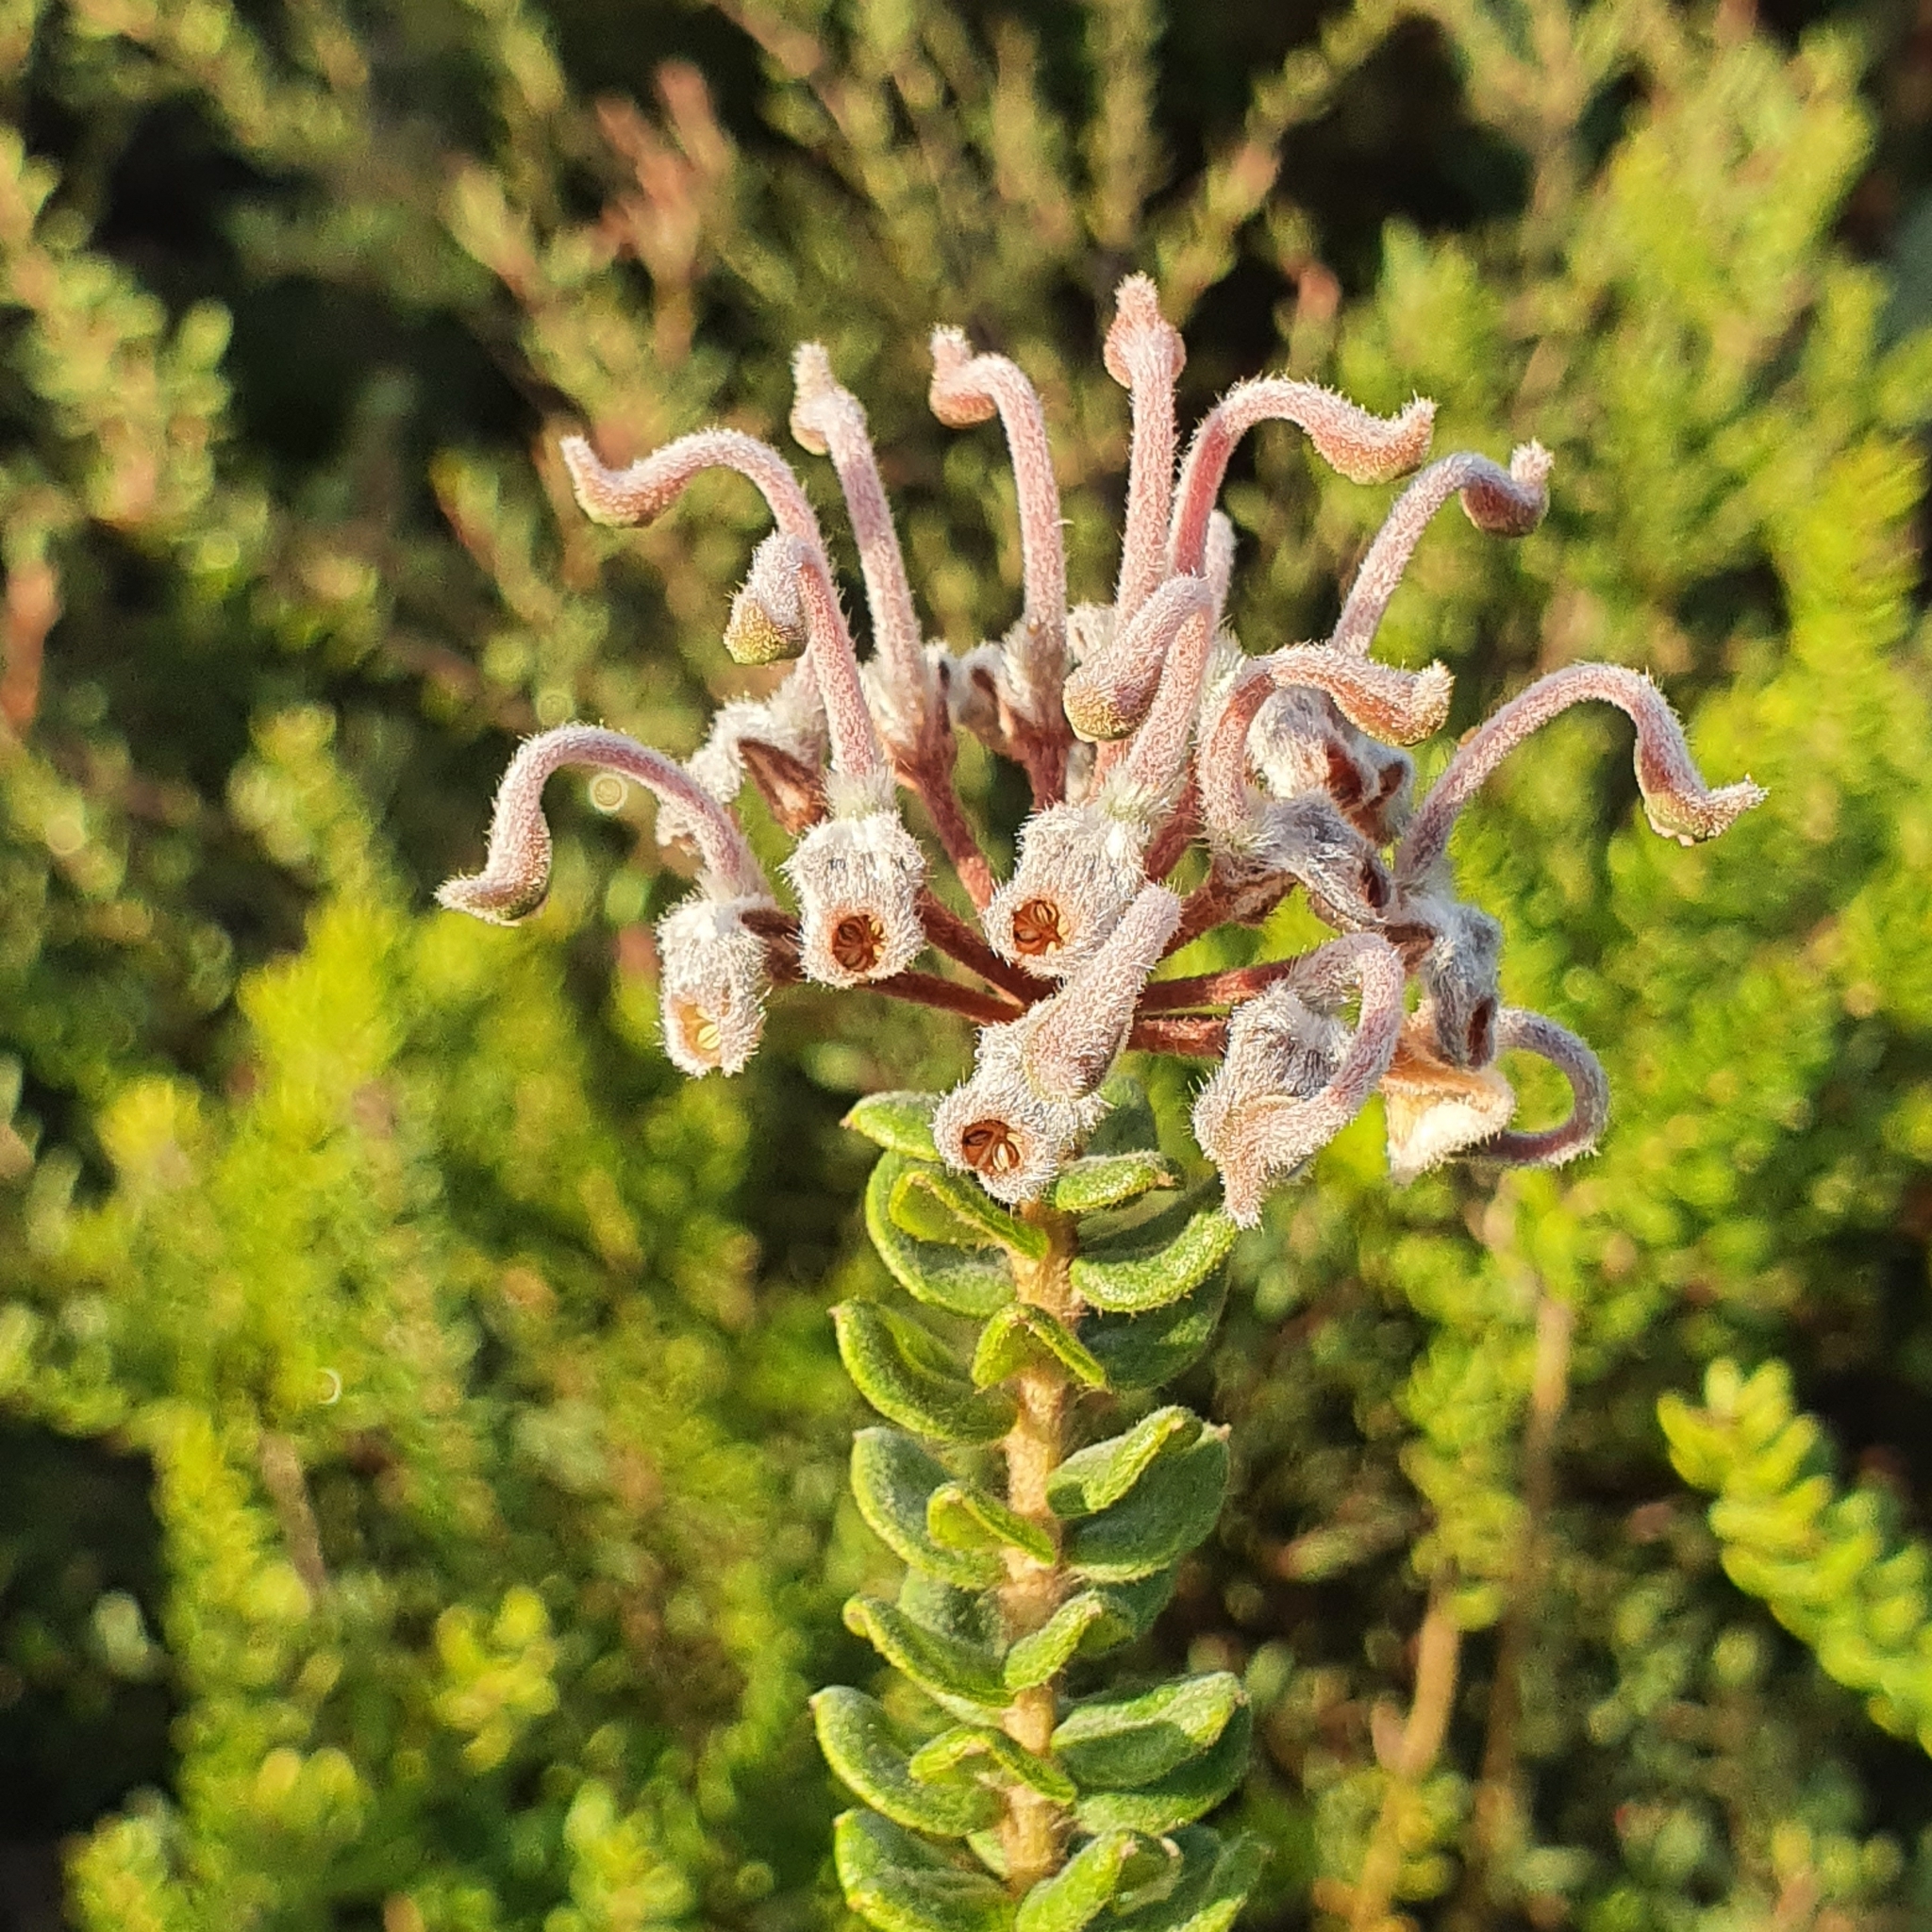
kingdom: Plantae
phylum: Tracheophyta
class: Magnoliopsida
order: Proteales
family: Proteaceae
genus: Grevillea
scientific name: Grevillea buxifolia
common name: Grey spiderflower
